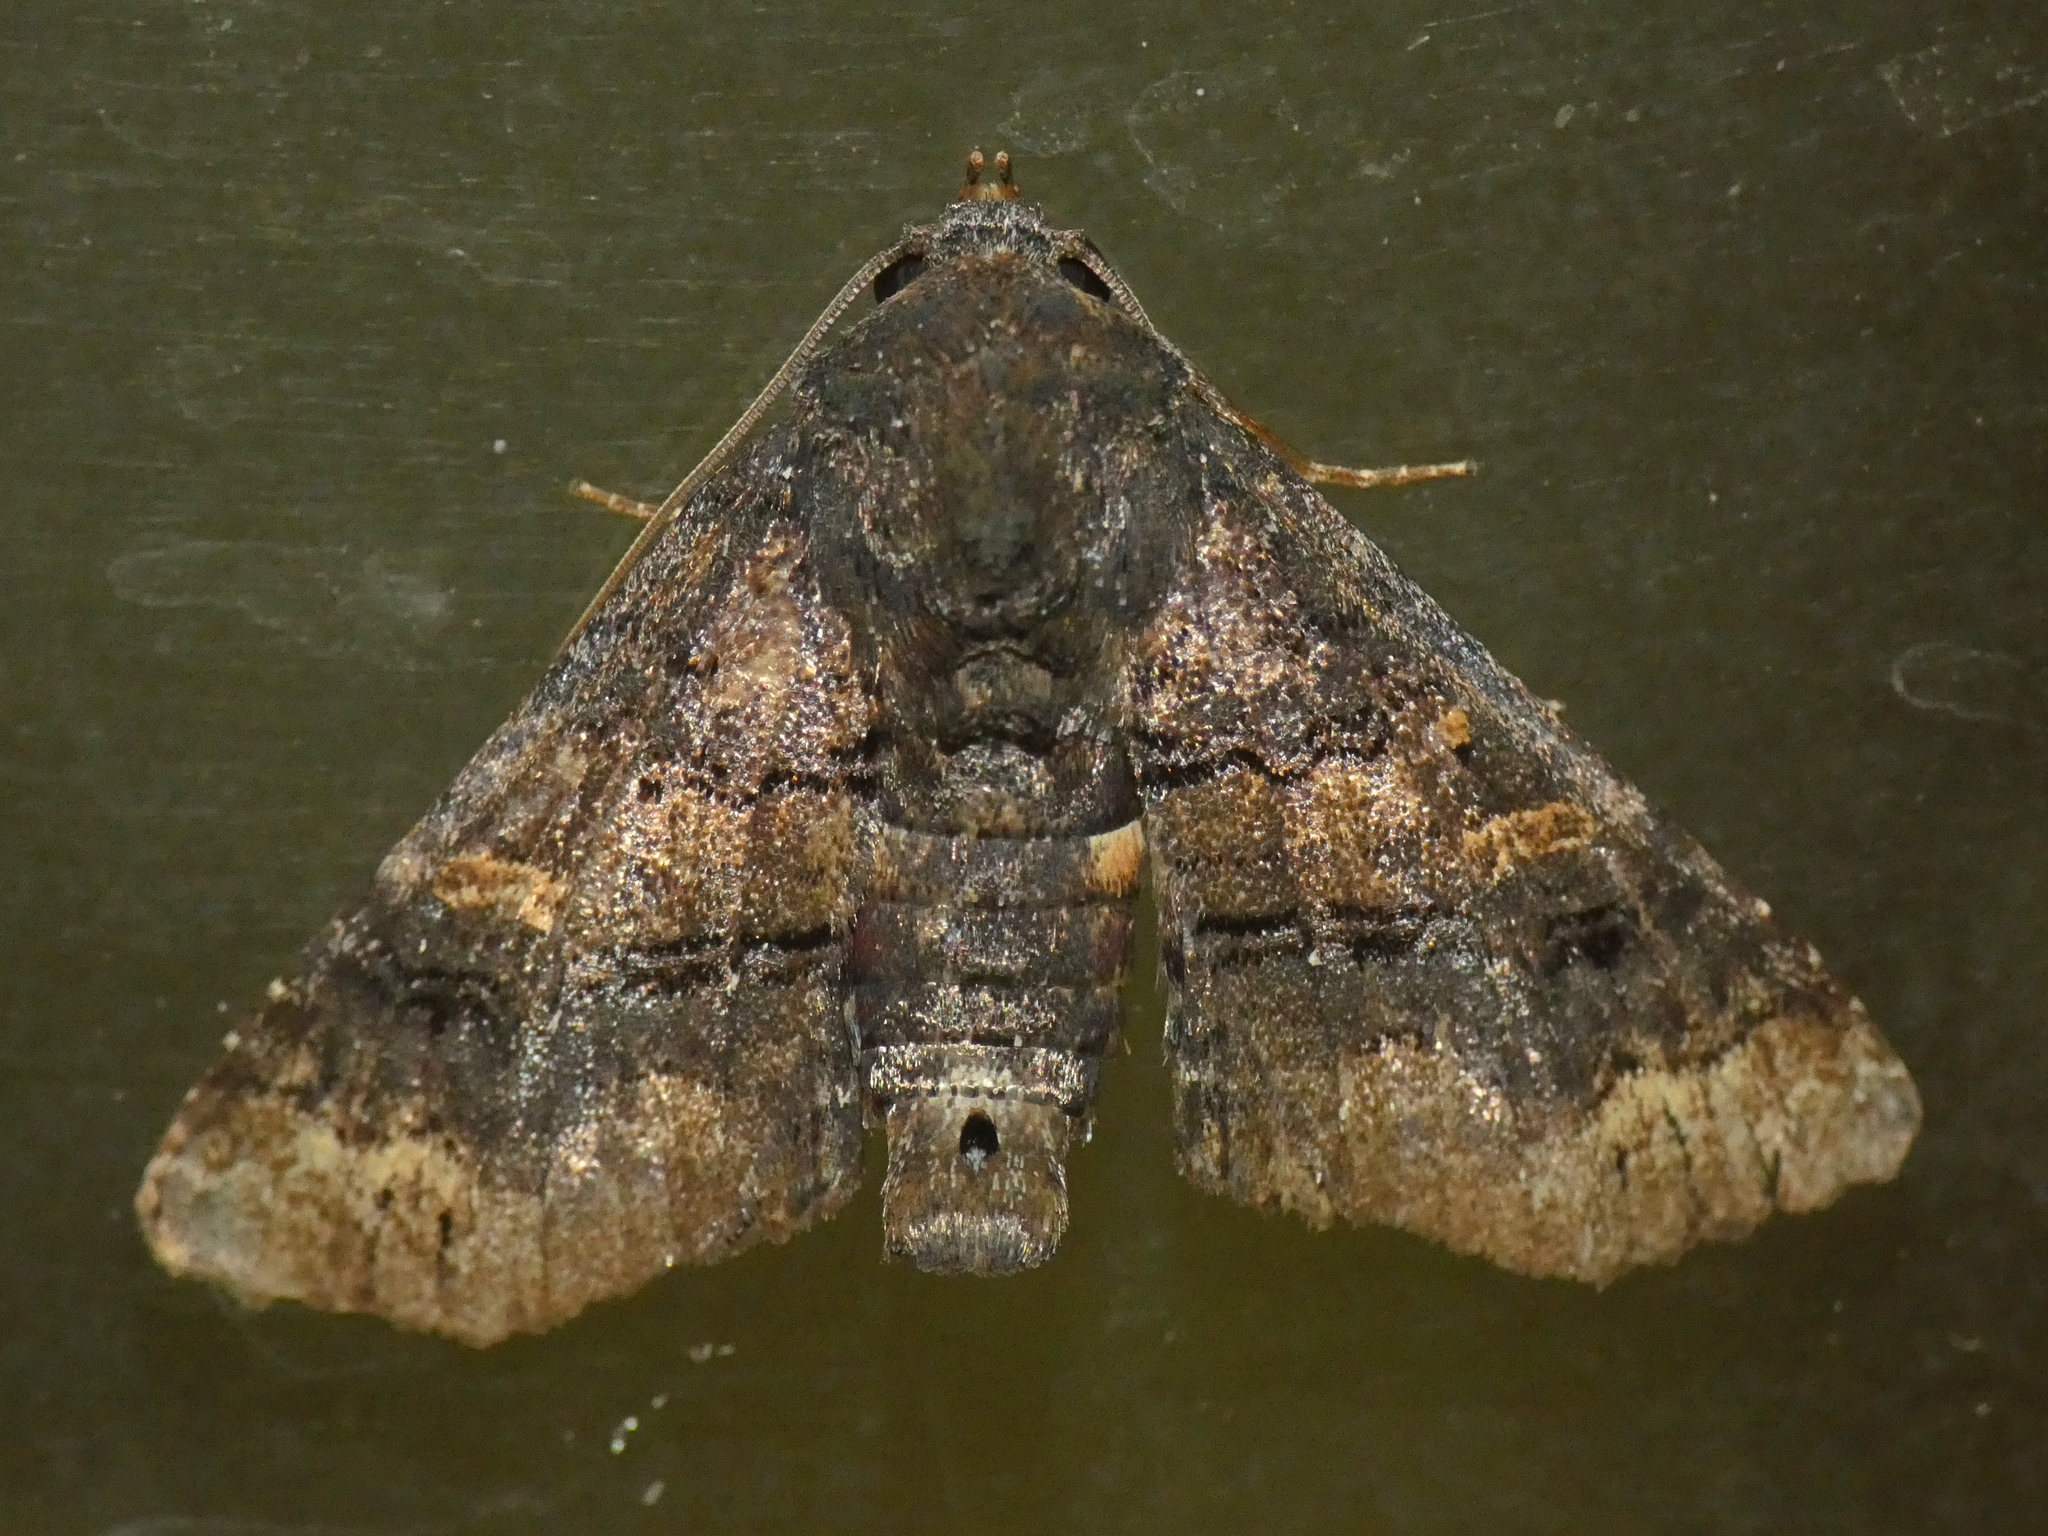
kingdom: Animalia
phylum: Arthropoda
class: Insecta
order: Lepidoptera
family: Euteliidae
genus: Pataeta
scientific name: Pataeta carbo
